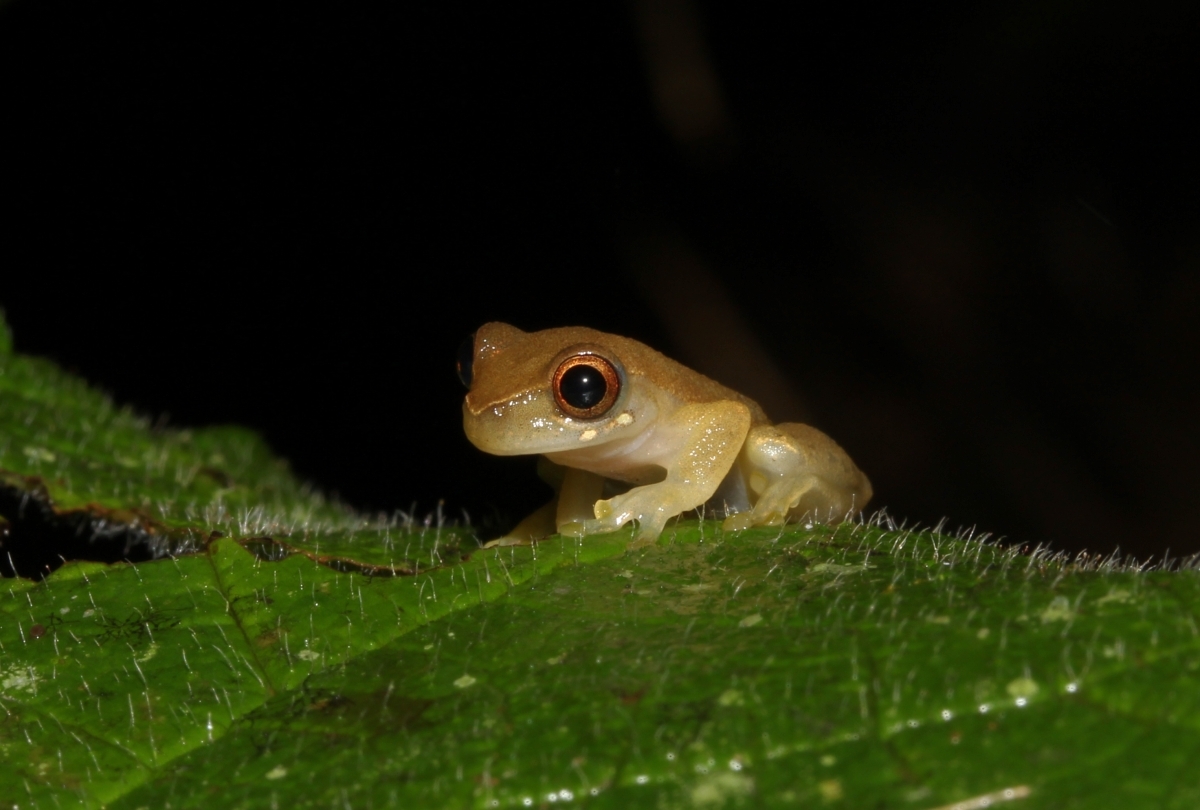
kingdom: Animalia
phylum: Chordata
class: Amphibia
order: Anura
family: Hylidae
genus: Dendropsophus
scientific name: Dendropsophus pauiniensis
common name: Pauini treefrog
